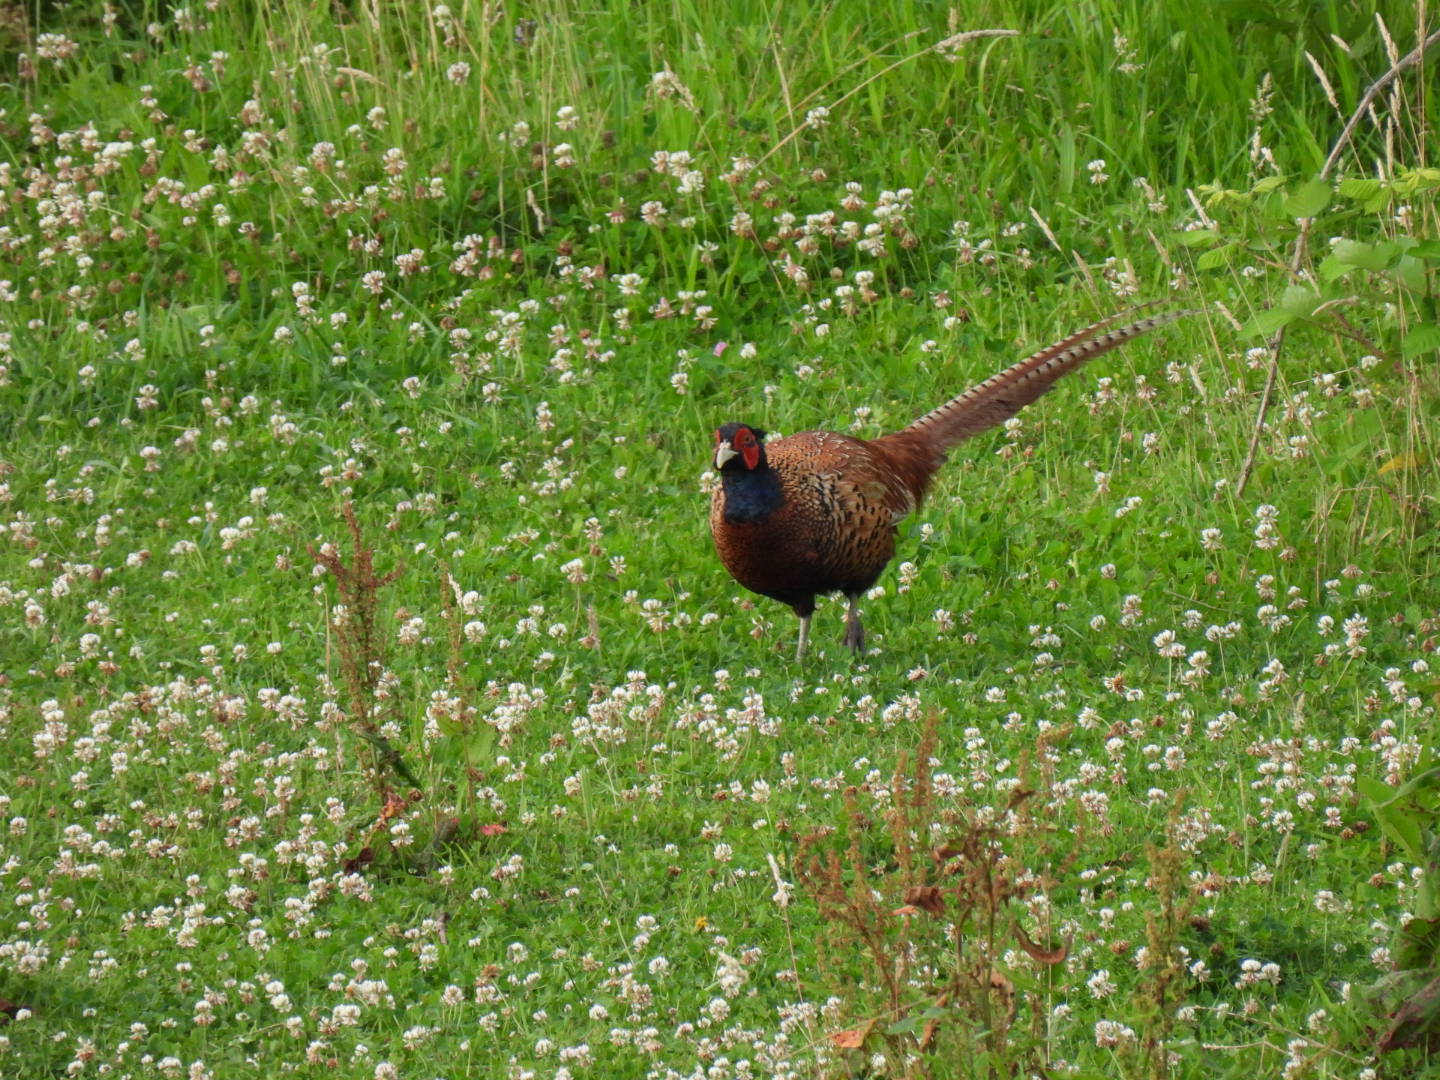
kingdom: Animalia
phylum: Chordata
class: Aves
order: Galliformes
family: Phasianidae
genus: Phasianus
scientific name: Phasianus colchicus
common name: Common pheasant
